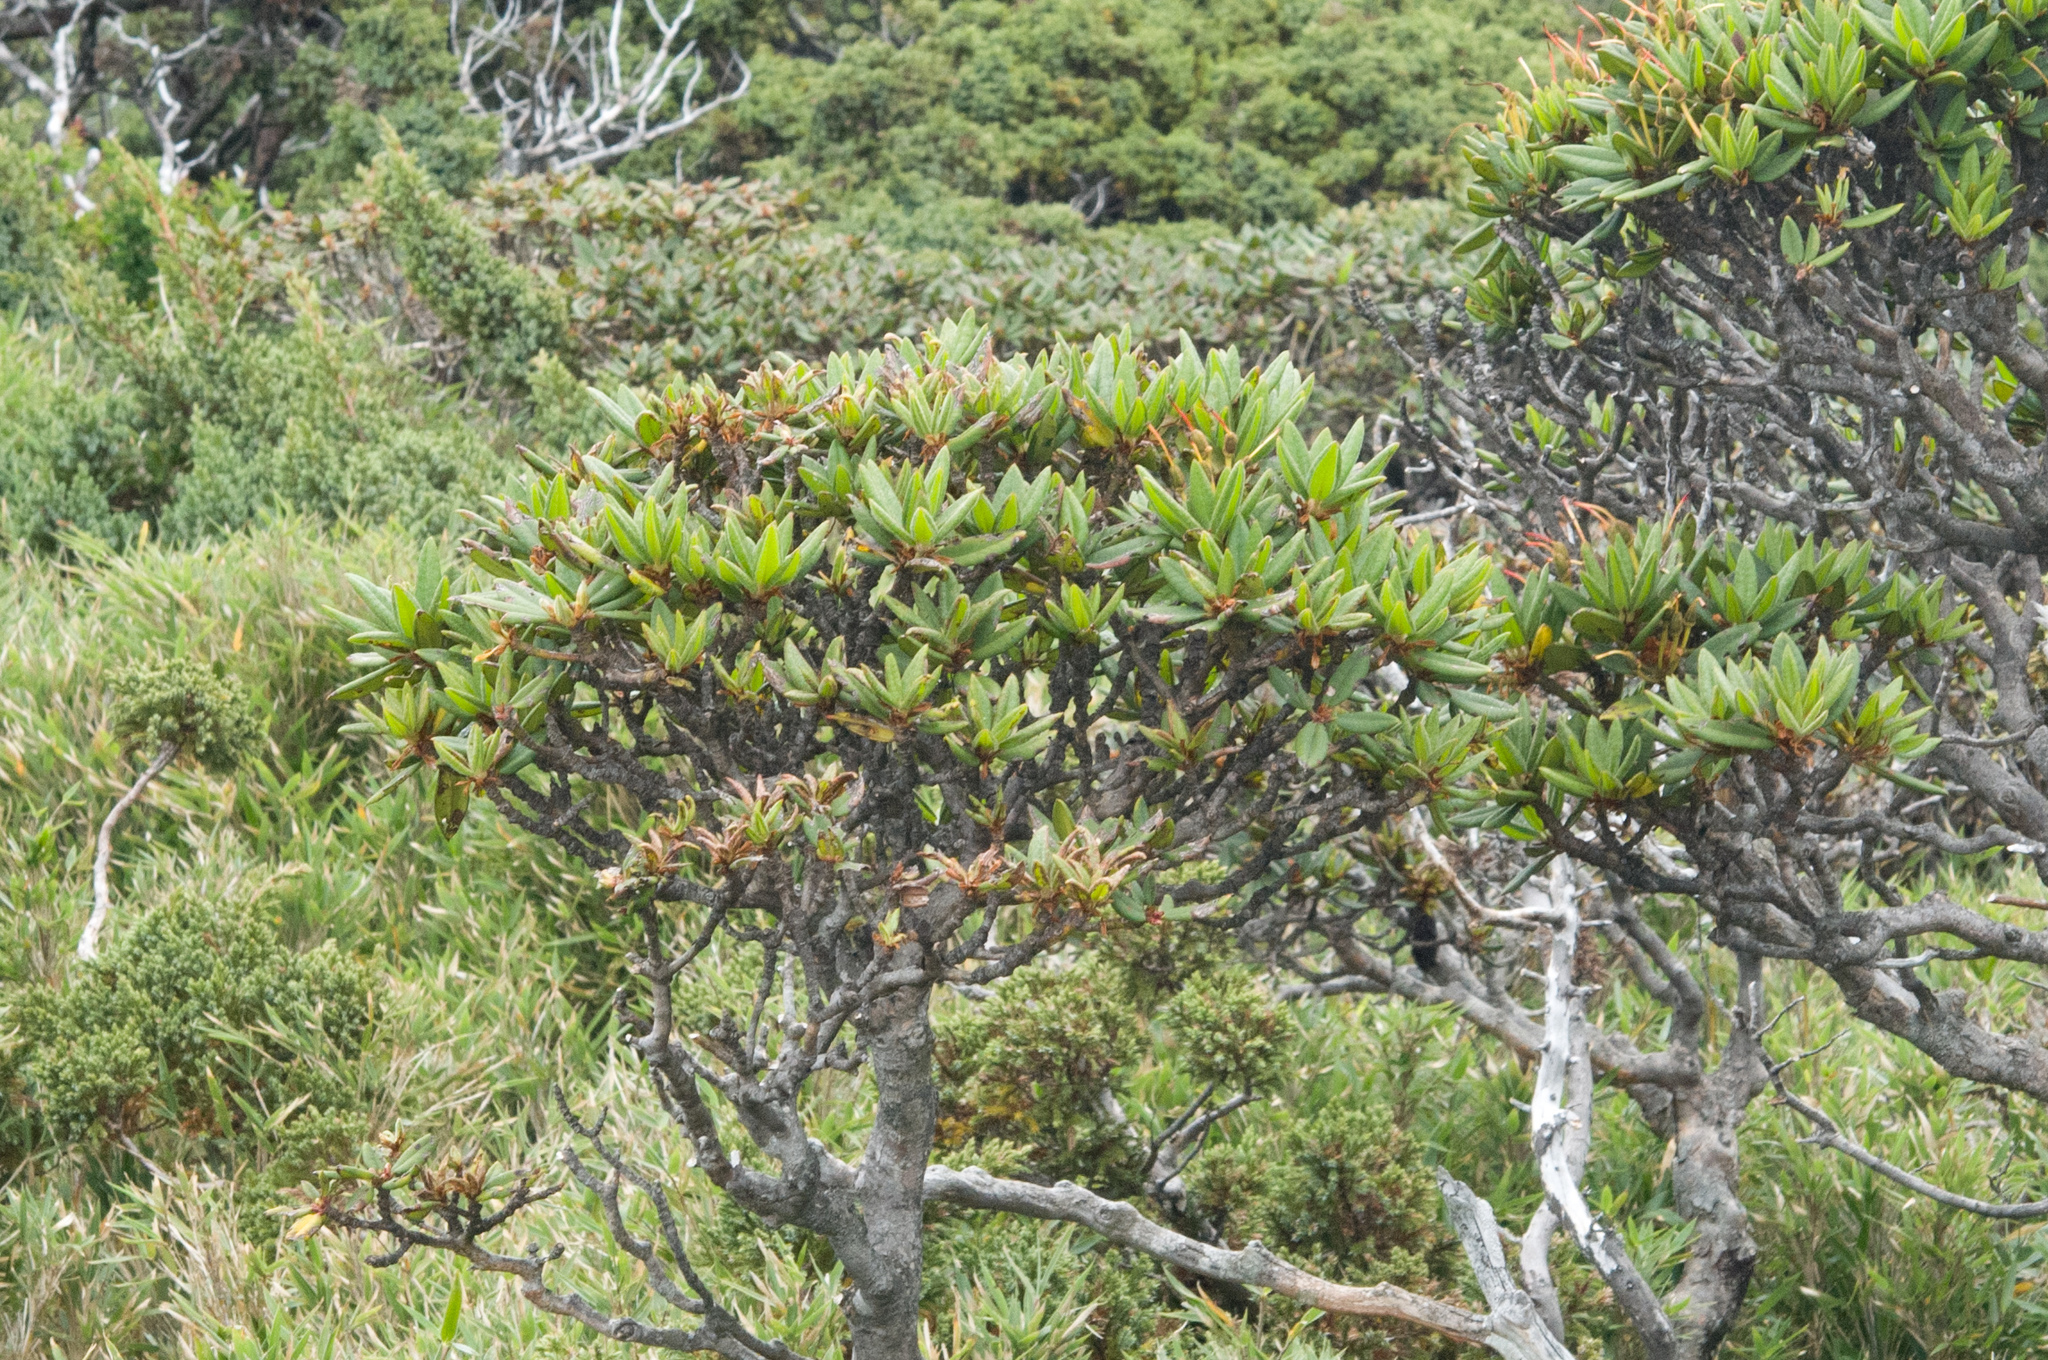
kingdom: Plantae
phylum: Tracheophyta
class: Magnoliopsida
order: Ericales
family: Ericaceae
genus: Rhododendron
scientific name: Rhododendron pseudochrysanthum
